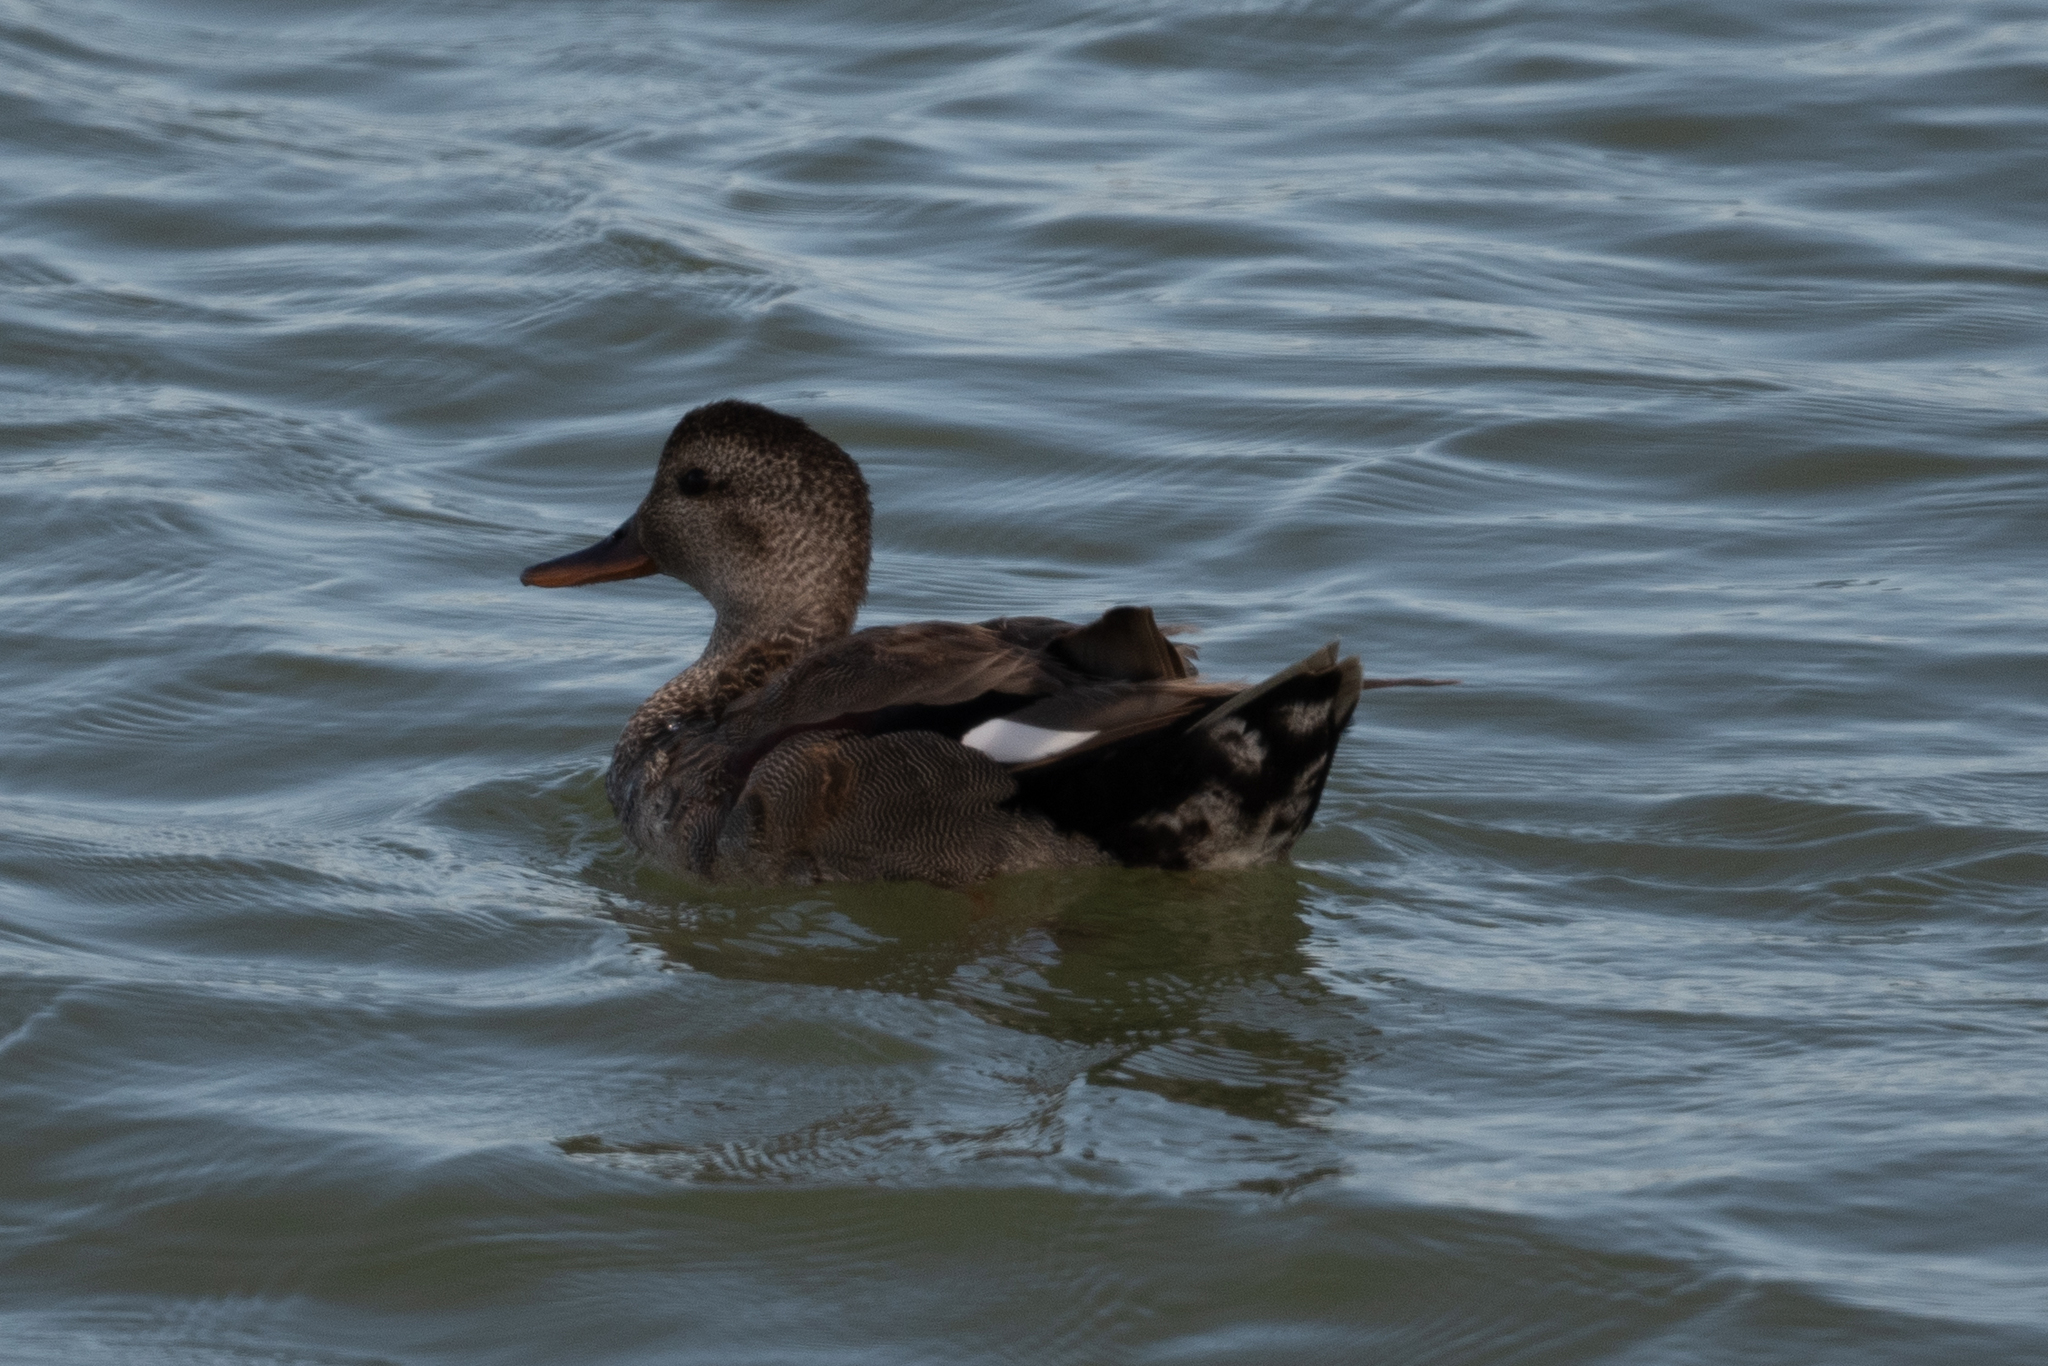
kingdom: Animalia
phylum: Chordata
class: Aves
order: Anseriformes
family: Anatidae
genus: Mareca
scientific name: Mareca strepera
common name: Gadwall
